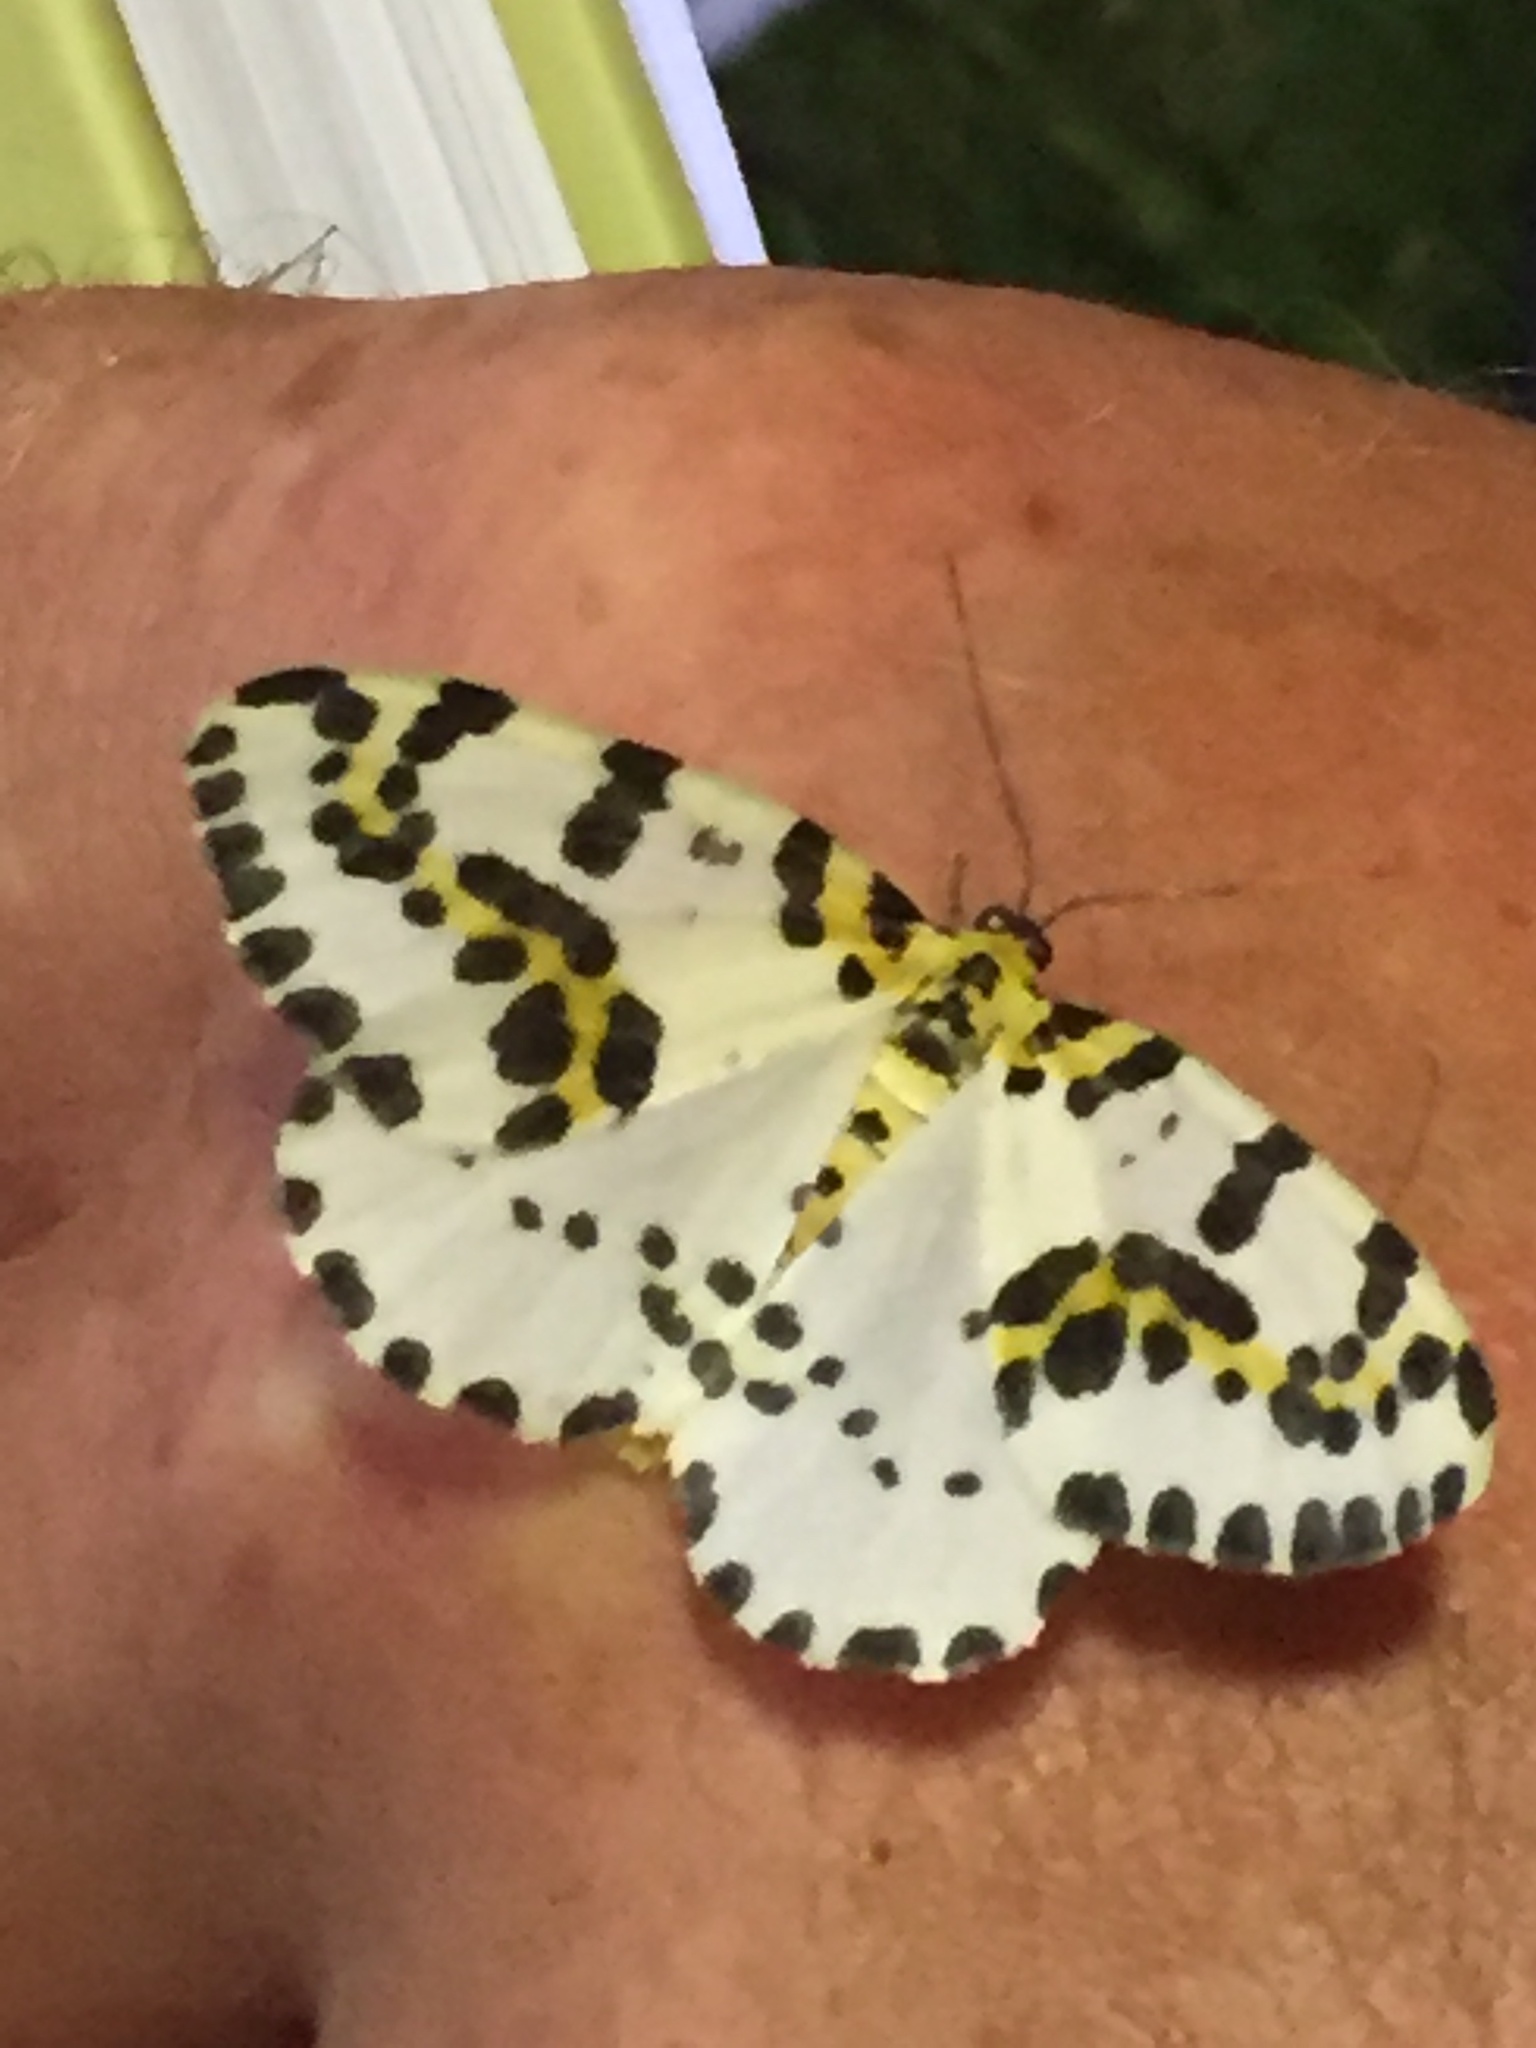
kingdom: Animalia
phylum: Arthropoda
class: Insecta
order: Lepidoptera
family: Geometridae
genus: Abraxas
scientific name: Abraxas grossulariata
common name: Magpie
